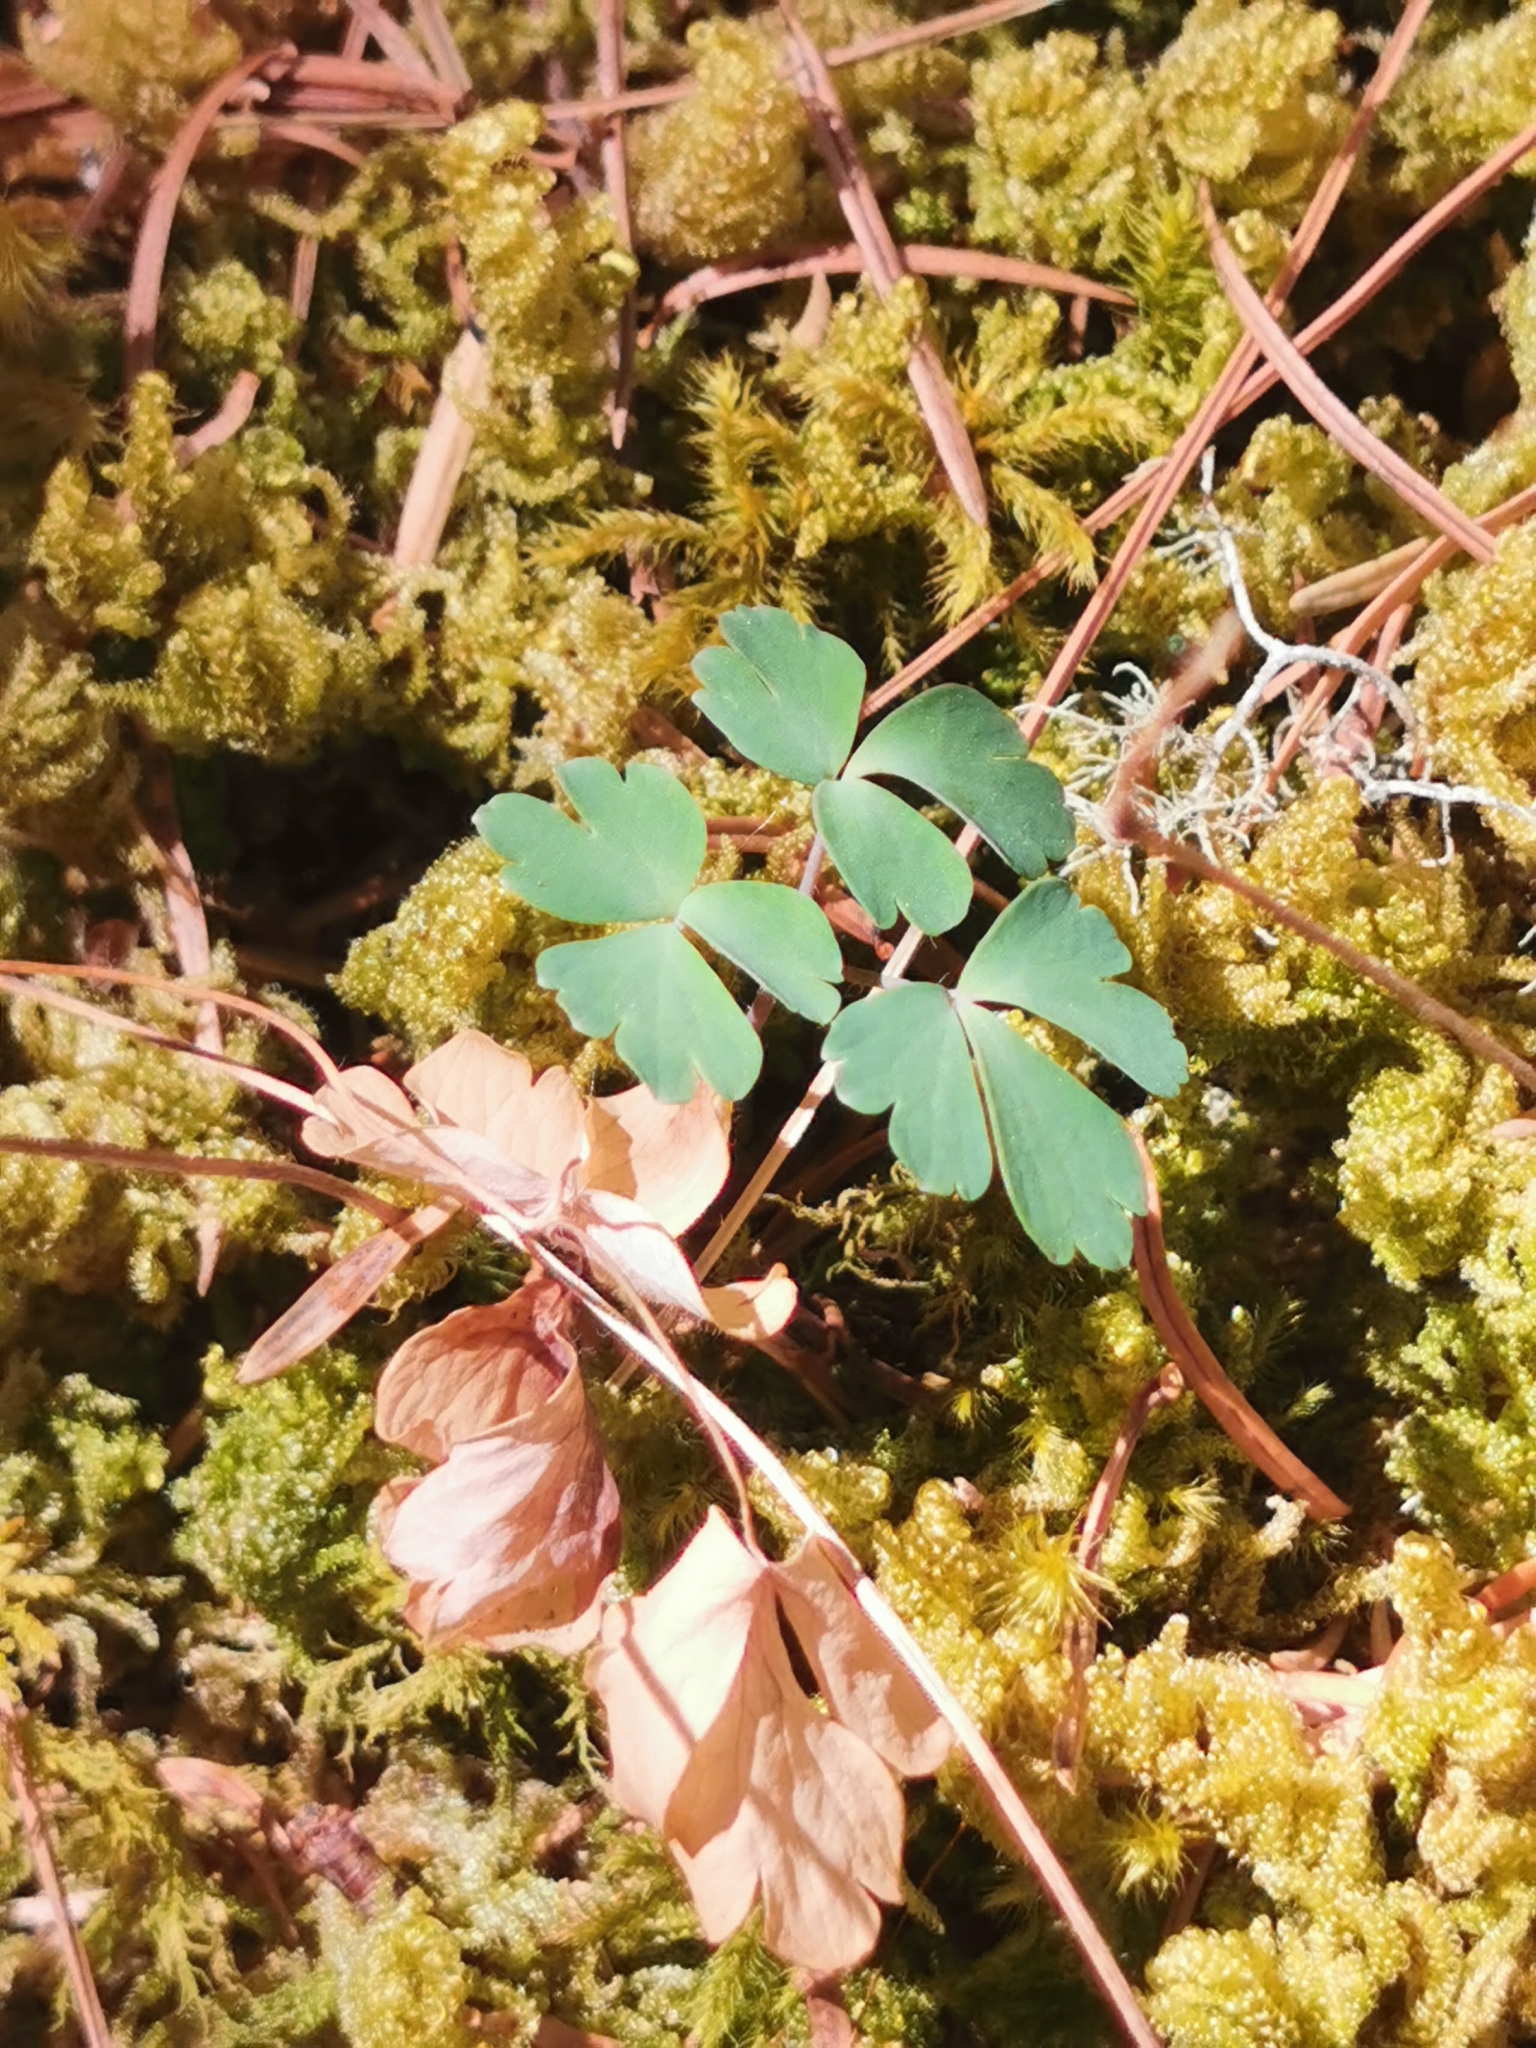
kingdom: Plantae
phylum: Tracheophyta
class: Magnoliopsida
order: Ranunculales
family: Ranunculaceae
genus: Aquilegia
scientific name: Aquilegia skinneri
